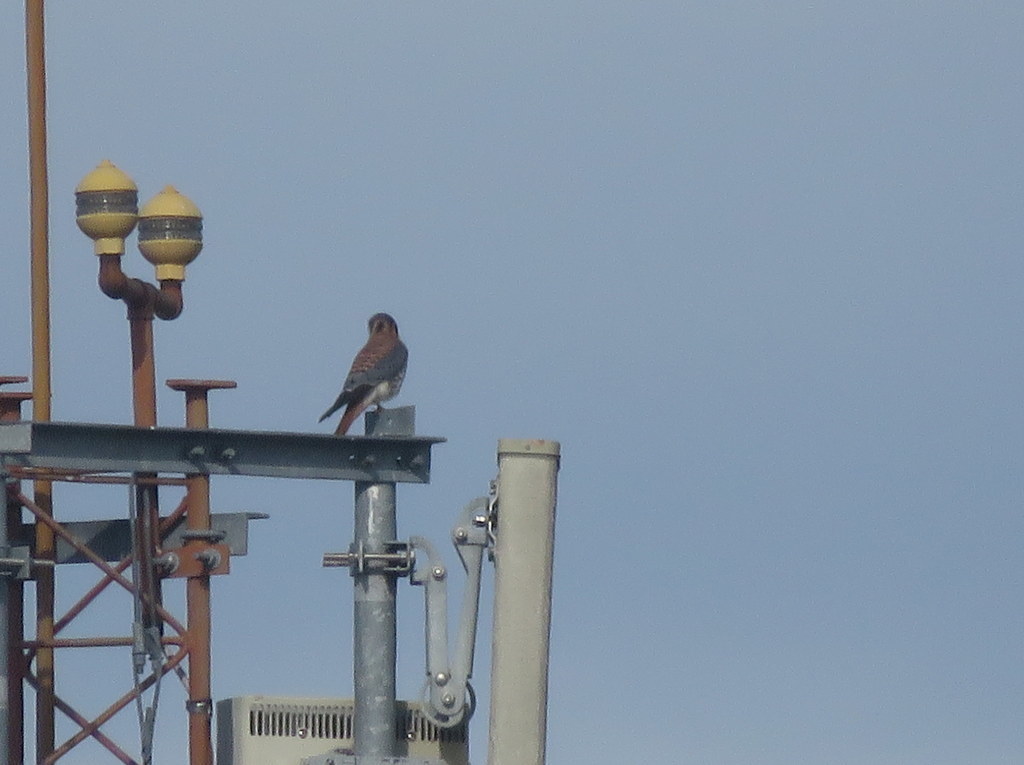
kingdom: Animalia
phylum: Chordata
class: Aves
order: Falconiformes
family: Falconidae
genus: Falco
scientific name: Falco sparverius
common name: American kestrel
